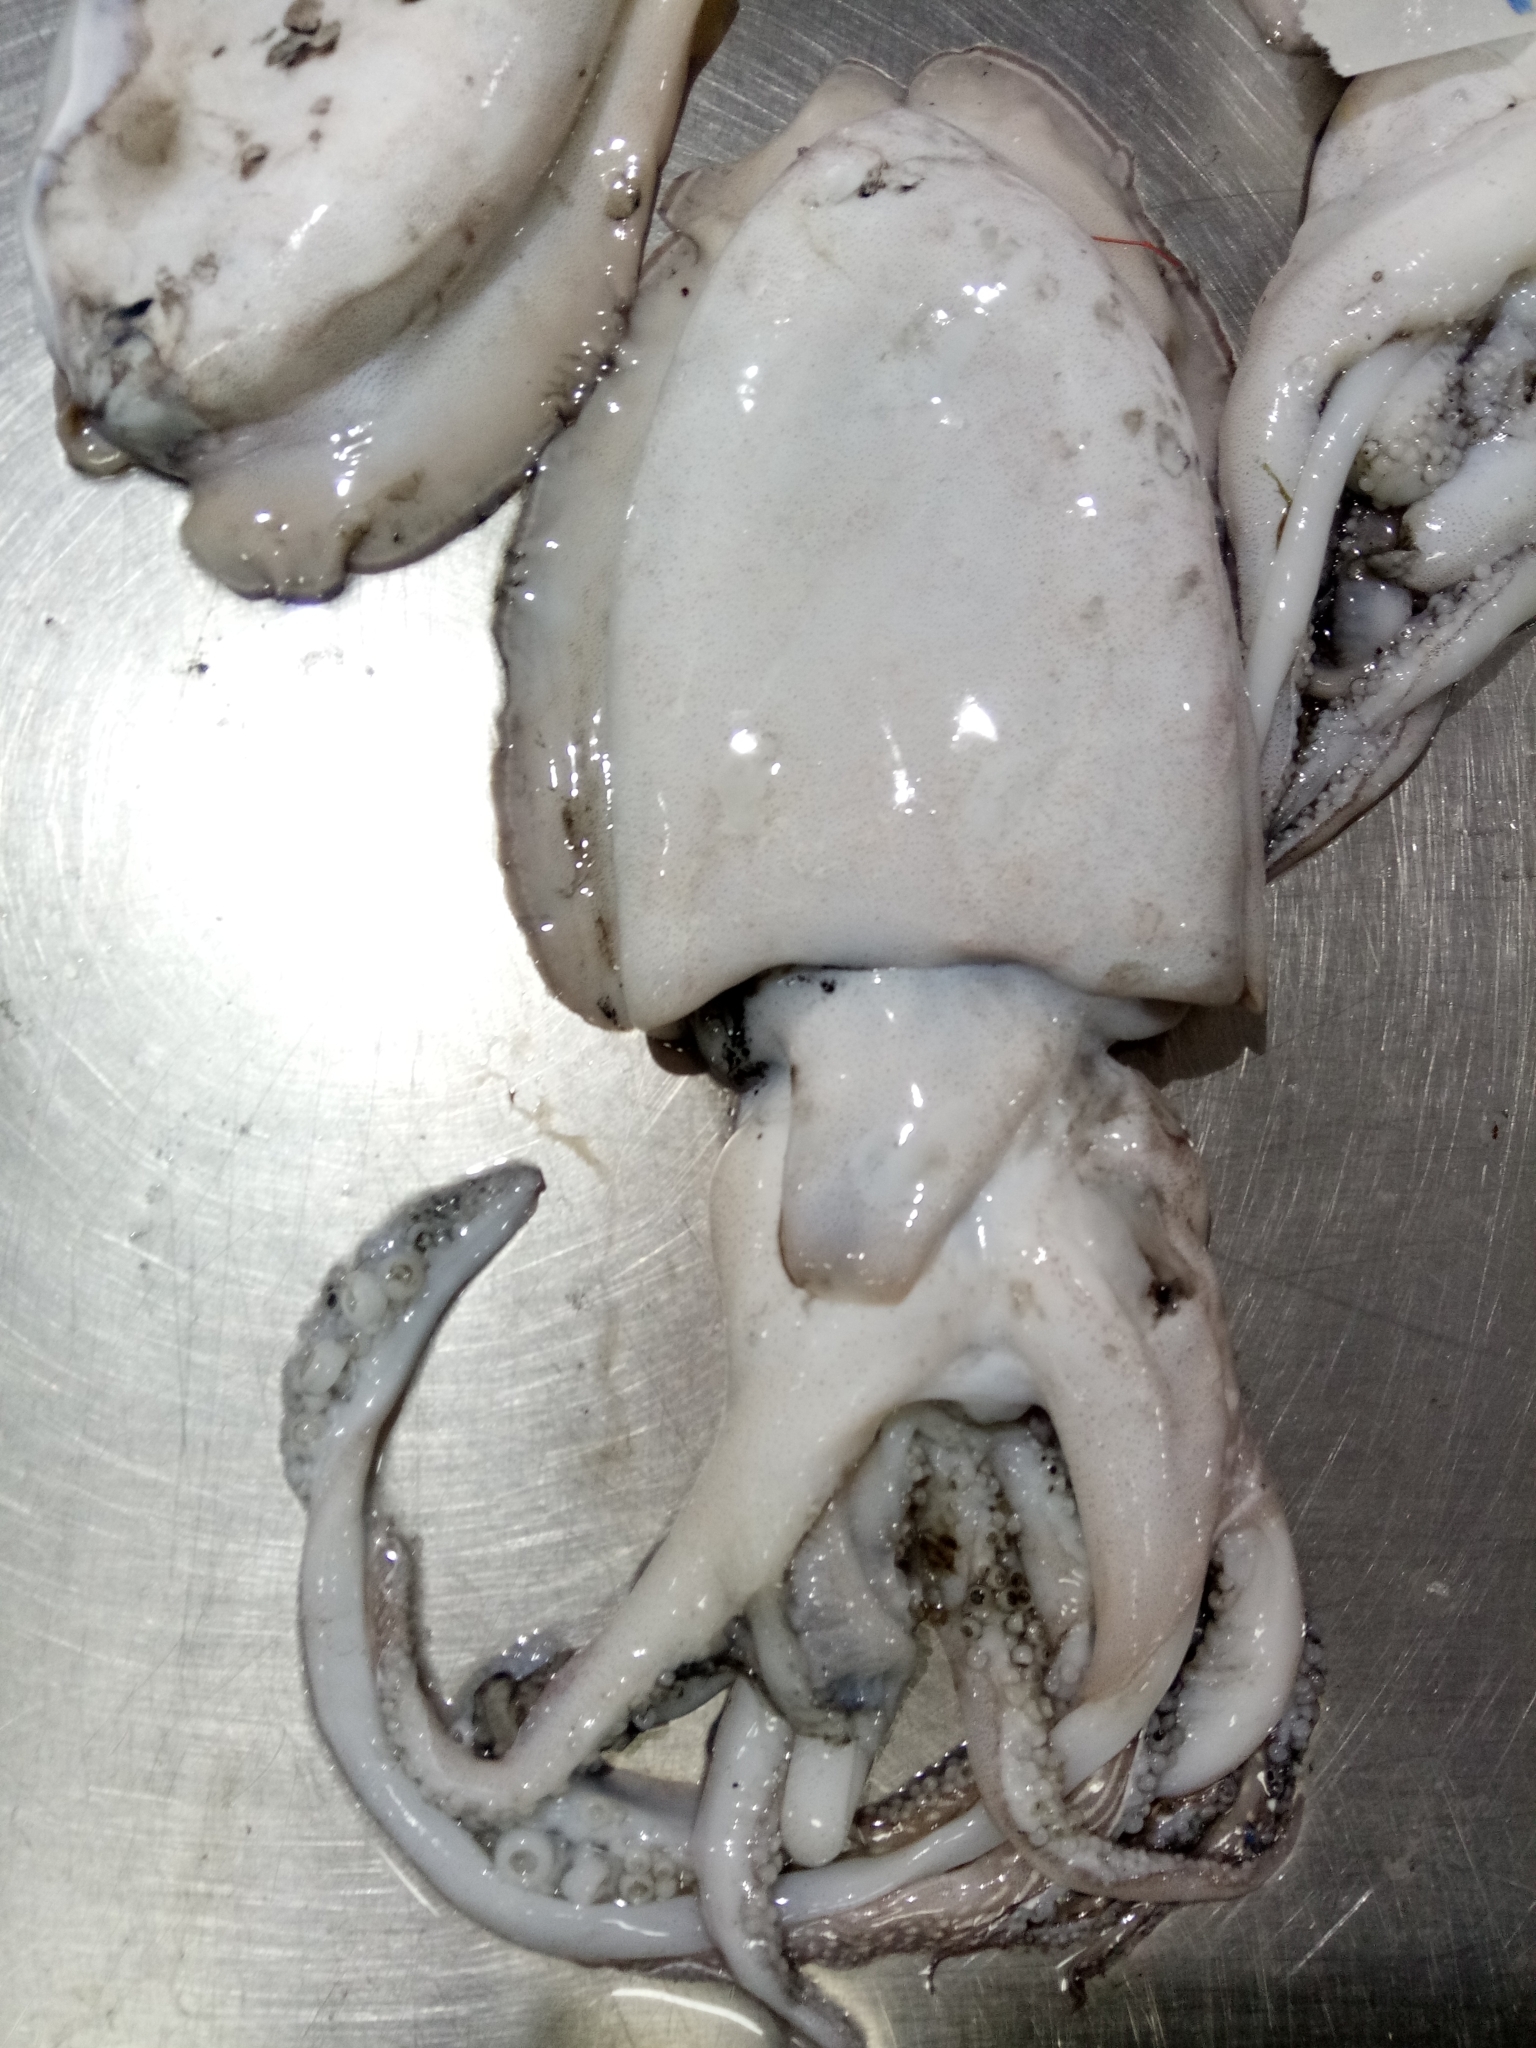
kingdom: Animalia
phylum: Mollusca
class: Cephalopoda
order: Sepiida
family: Sepiidae
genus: Sepia
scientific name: Sepia officinalis
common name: Common cuttlefish
